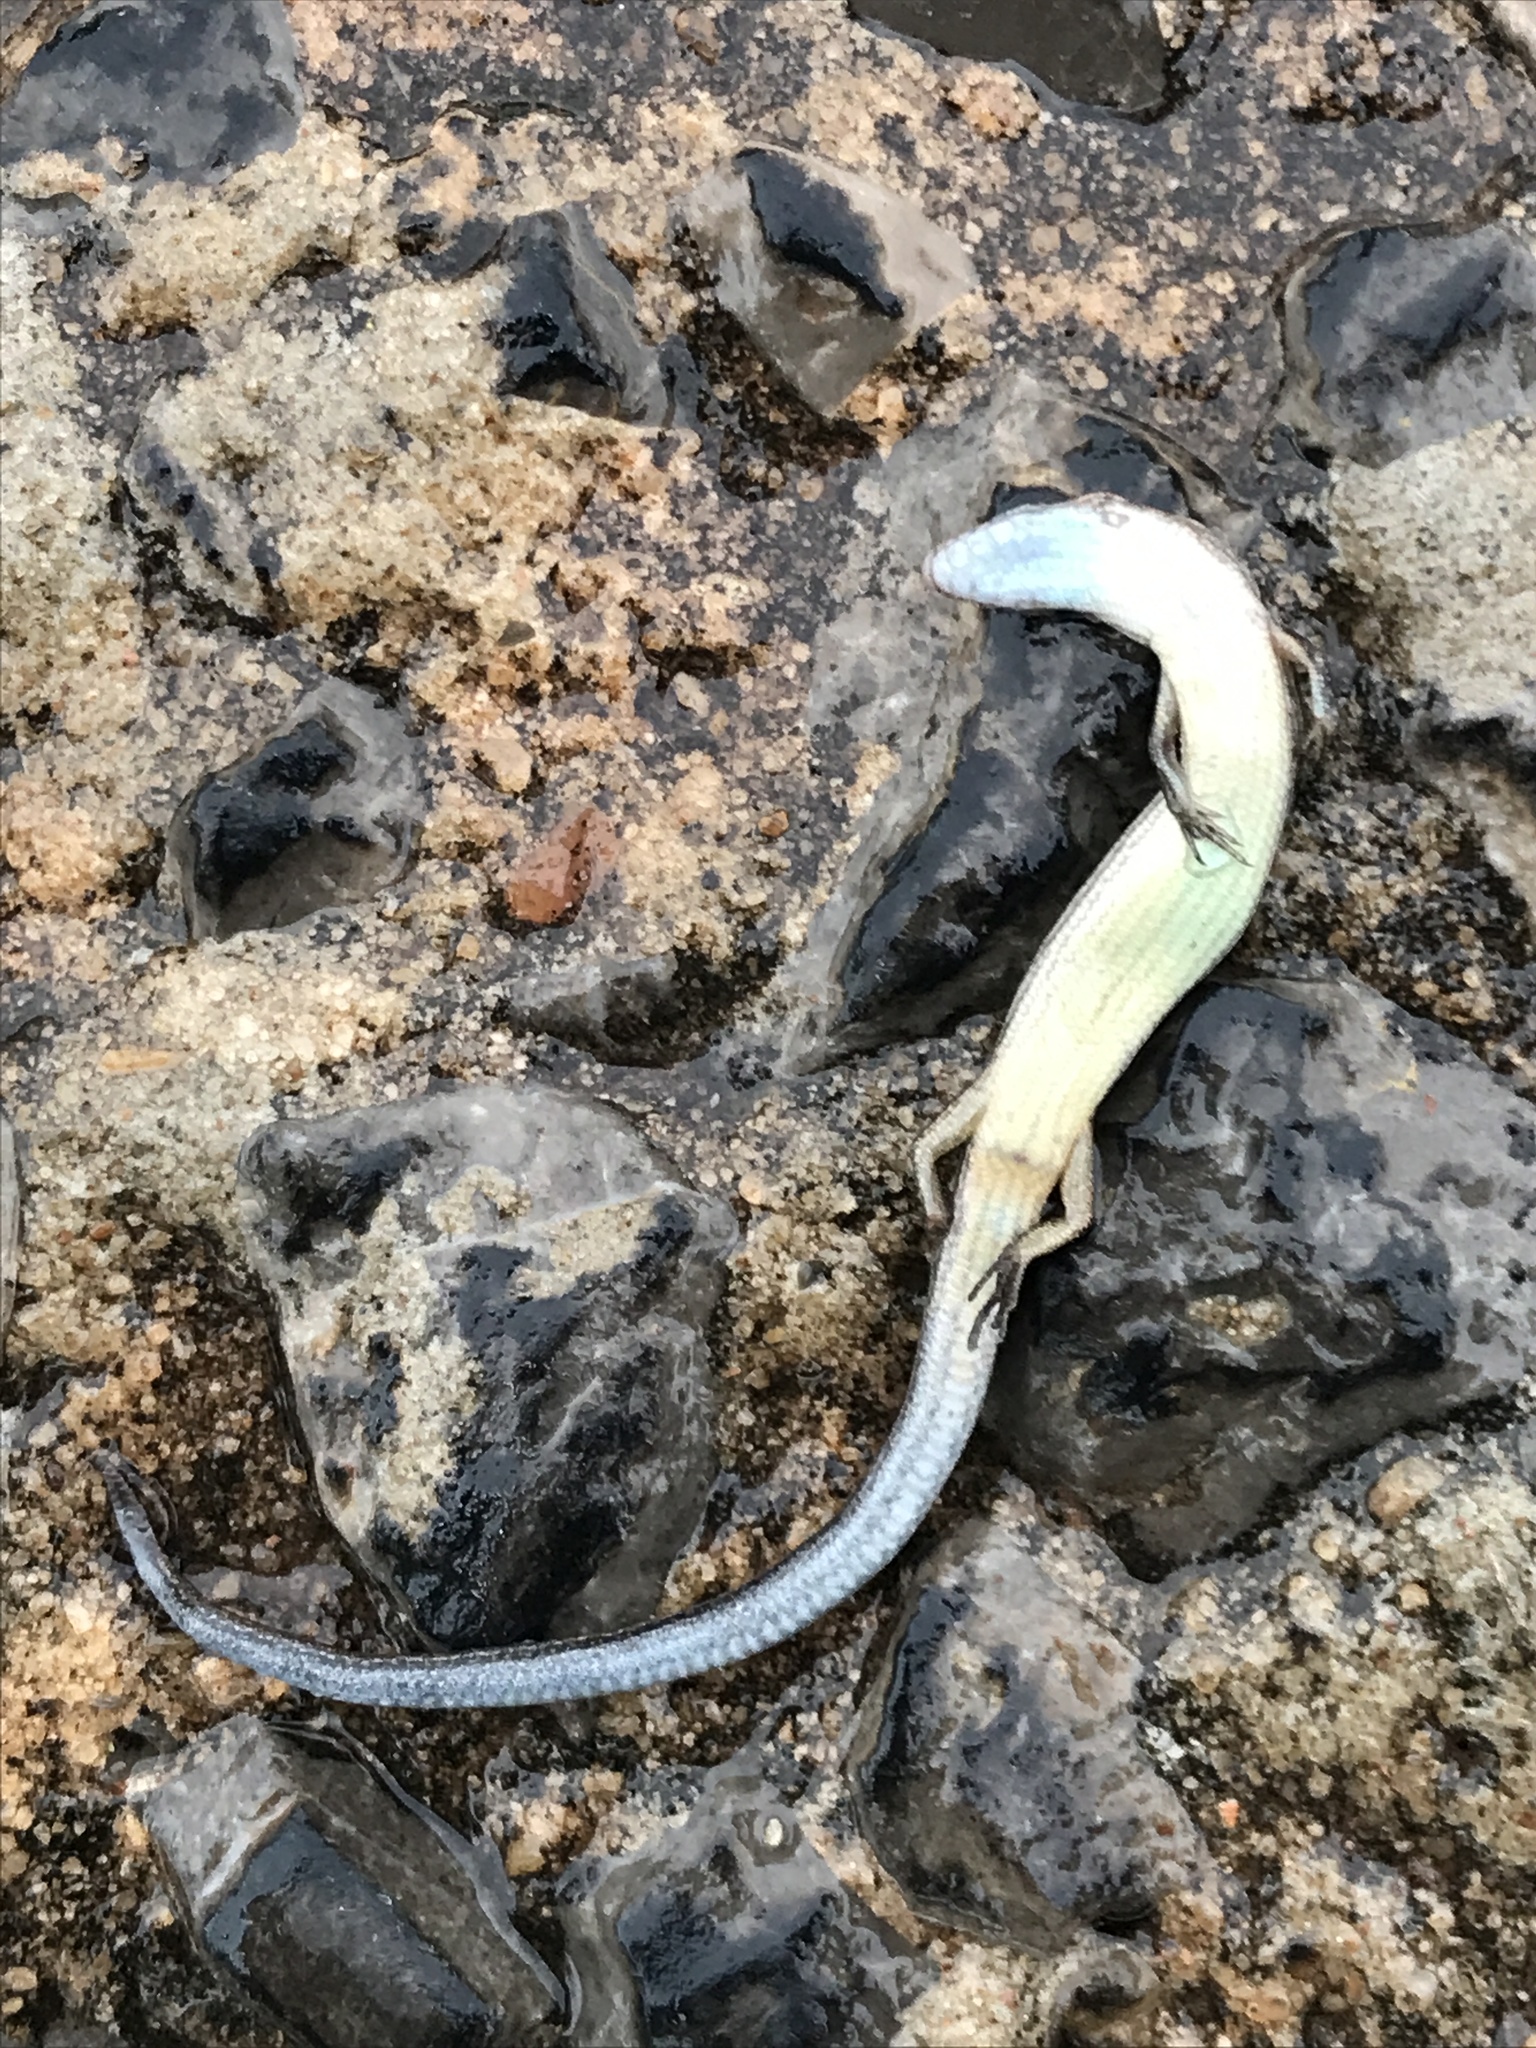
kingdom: Animalia
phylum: Chordata
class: Squamata
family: Scincidae
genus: Scincella
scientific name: Scincella lateralis
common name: Ground skink
